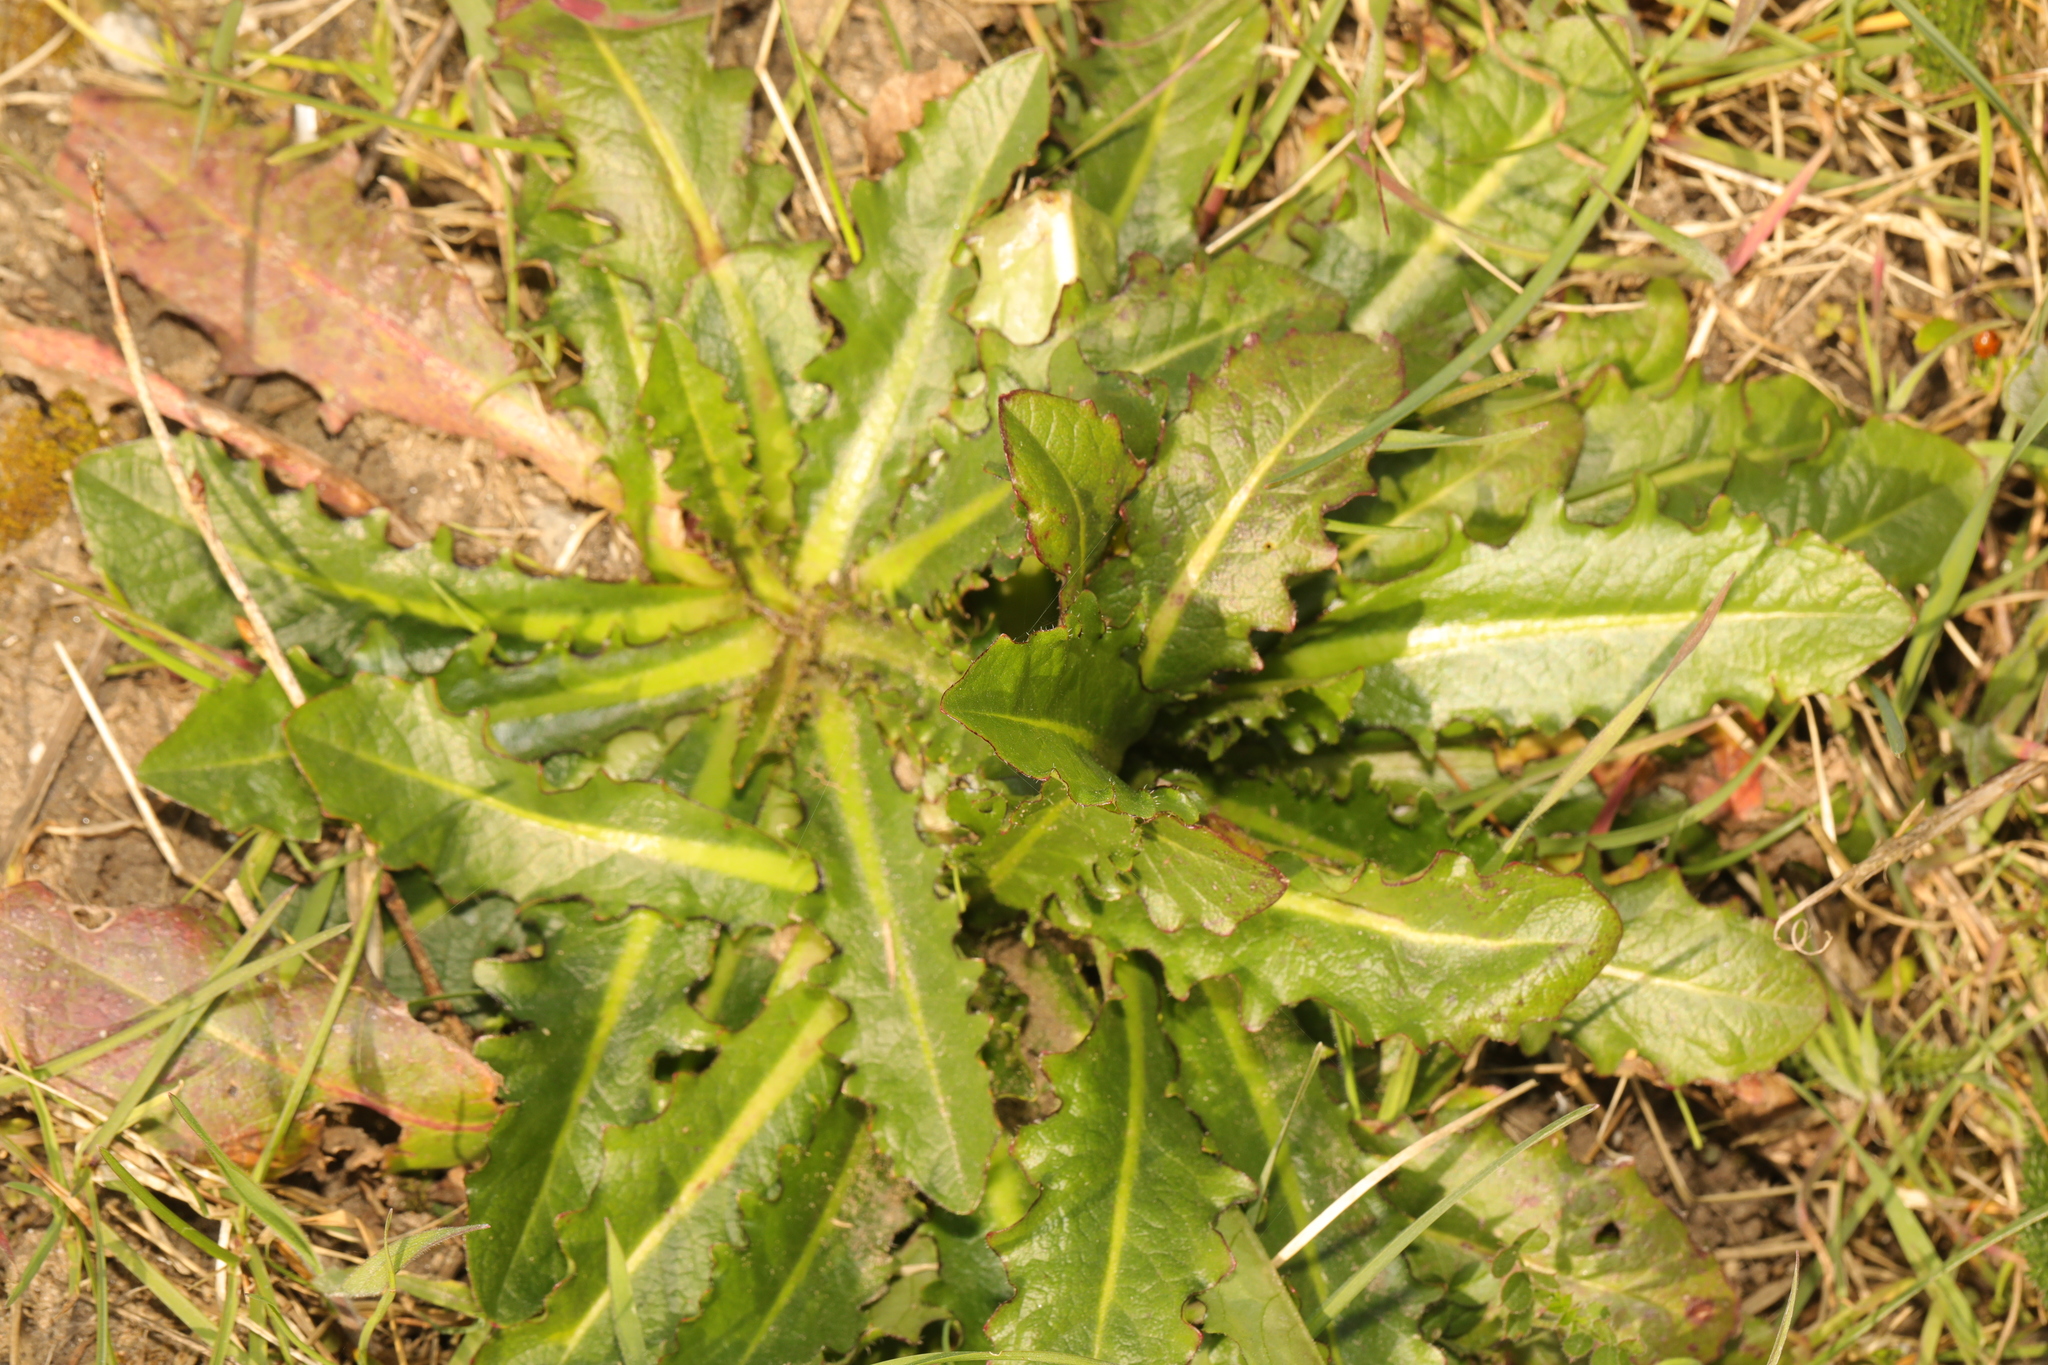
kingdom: Plantae
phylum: Tracheophyta
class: Magnoliopsida
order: Asterales
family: Asteraceae
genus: Hypochaeris
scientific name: Hypochaeris radicata
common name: Flatweed
